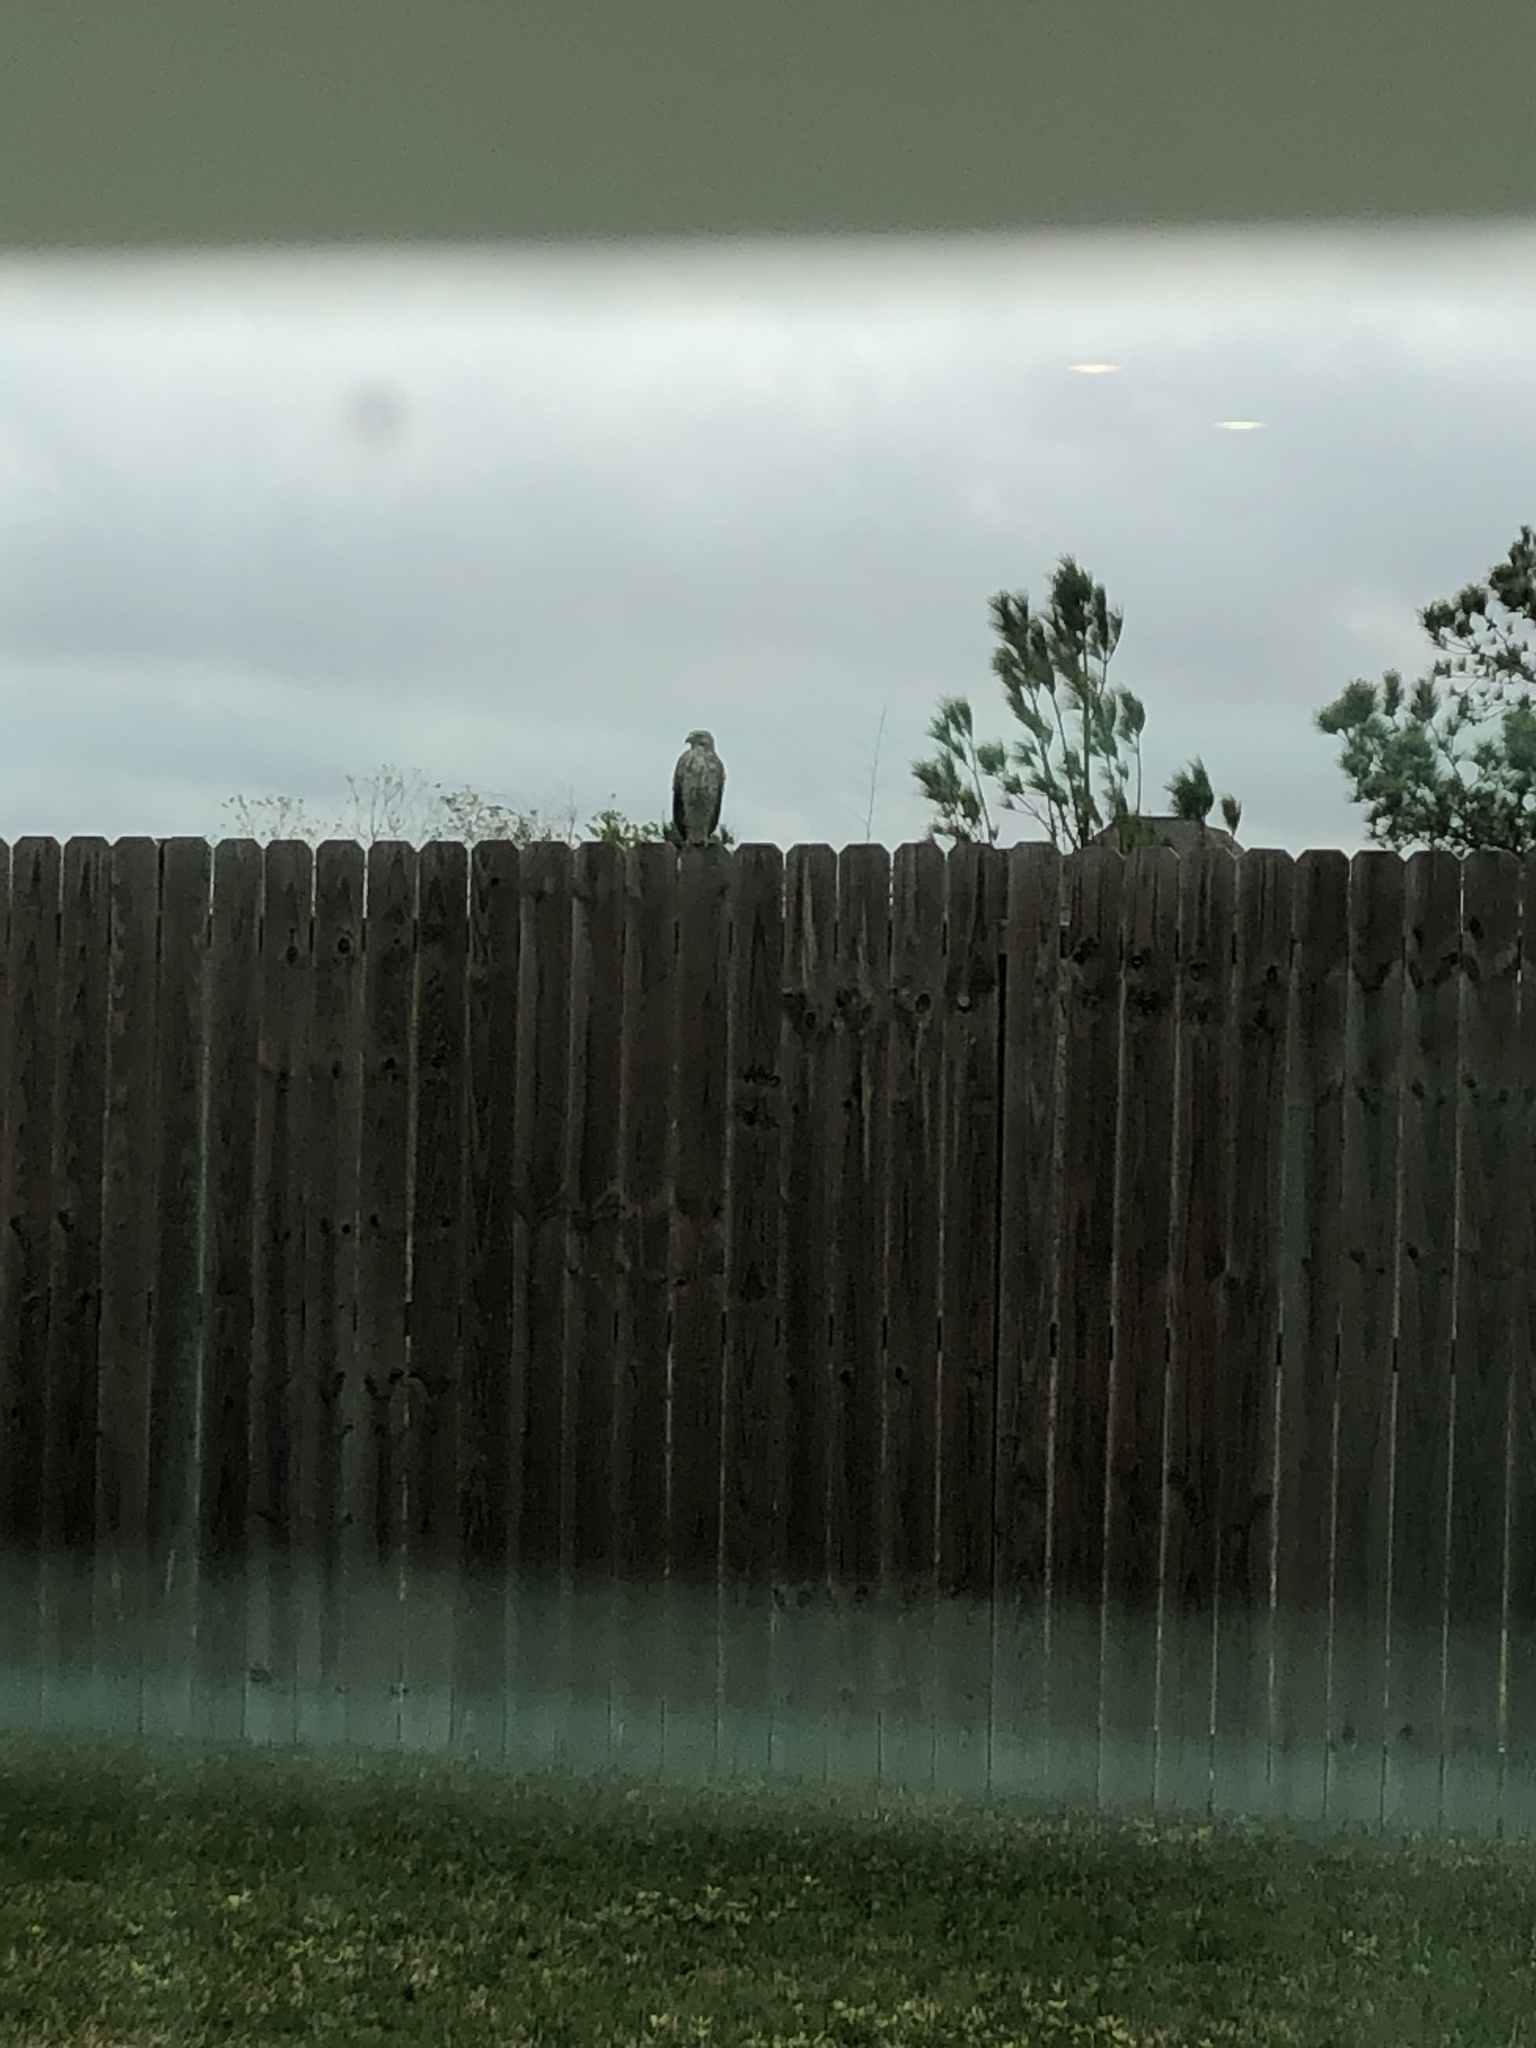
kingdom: Animalia
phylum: Chordata
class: Aves
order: Accipitriformes
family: Accipitridae
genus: Buteo
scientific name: Buteo lineatus
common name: Red-shouldered hawk
